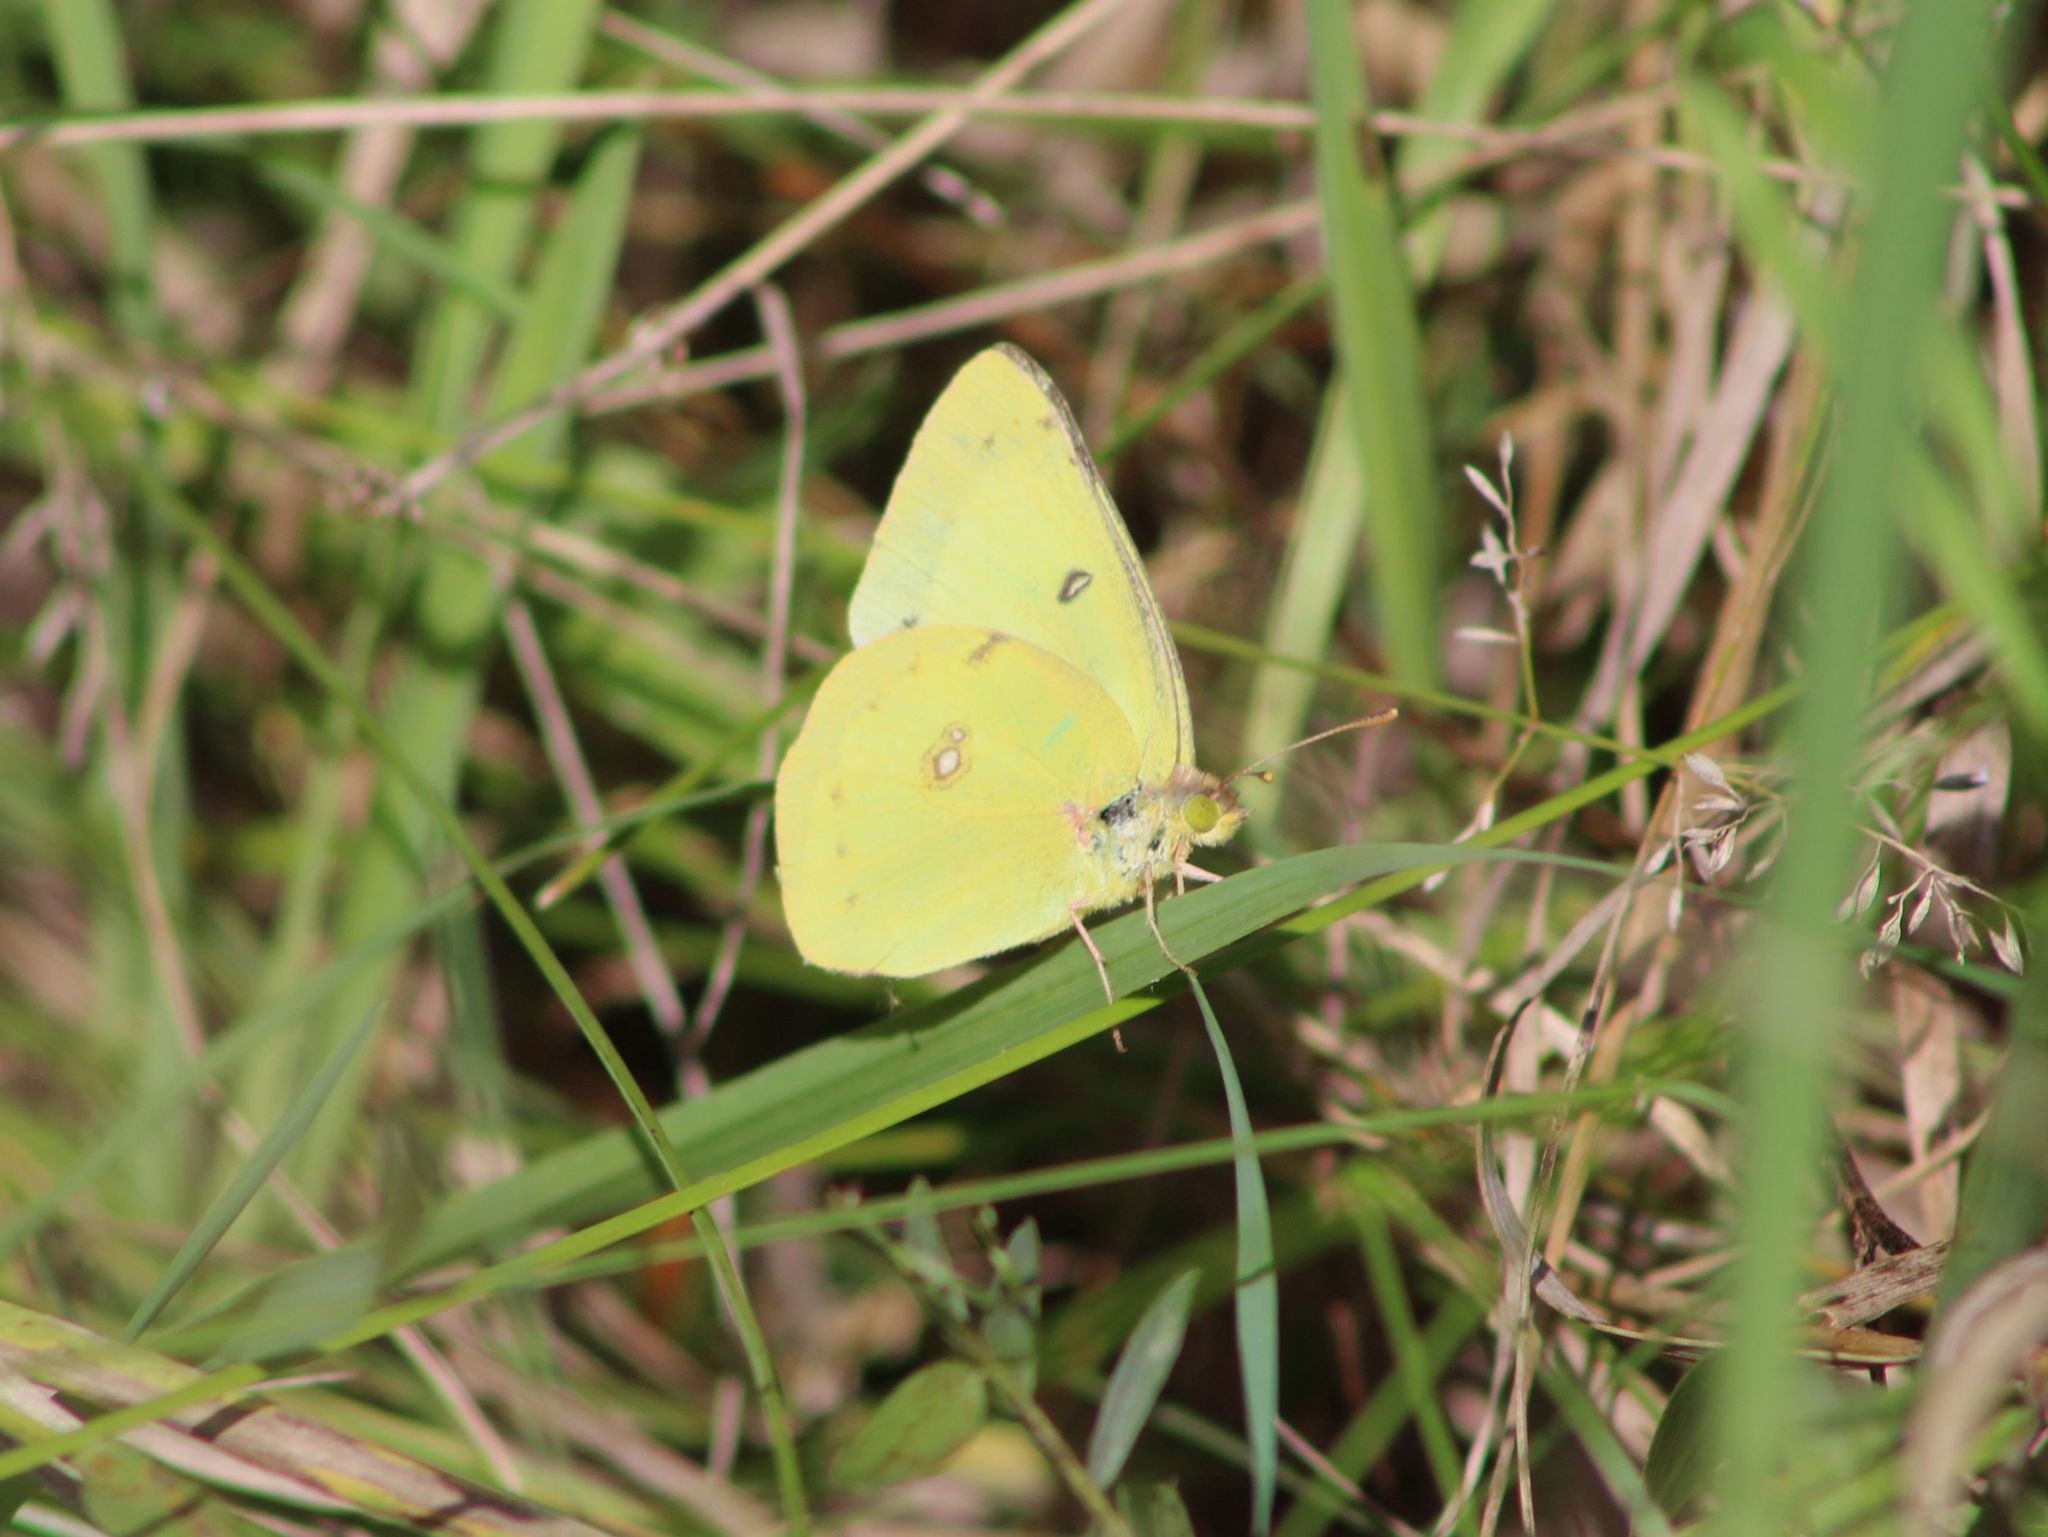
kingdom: Animalia
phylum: Arthropoda
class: Insecta
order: Lepidoptera
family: Pieridae
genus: Colias
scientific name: Colias philodice
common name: Clouded sulphur
